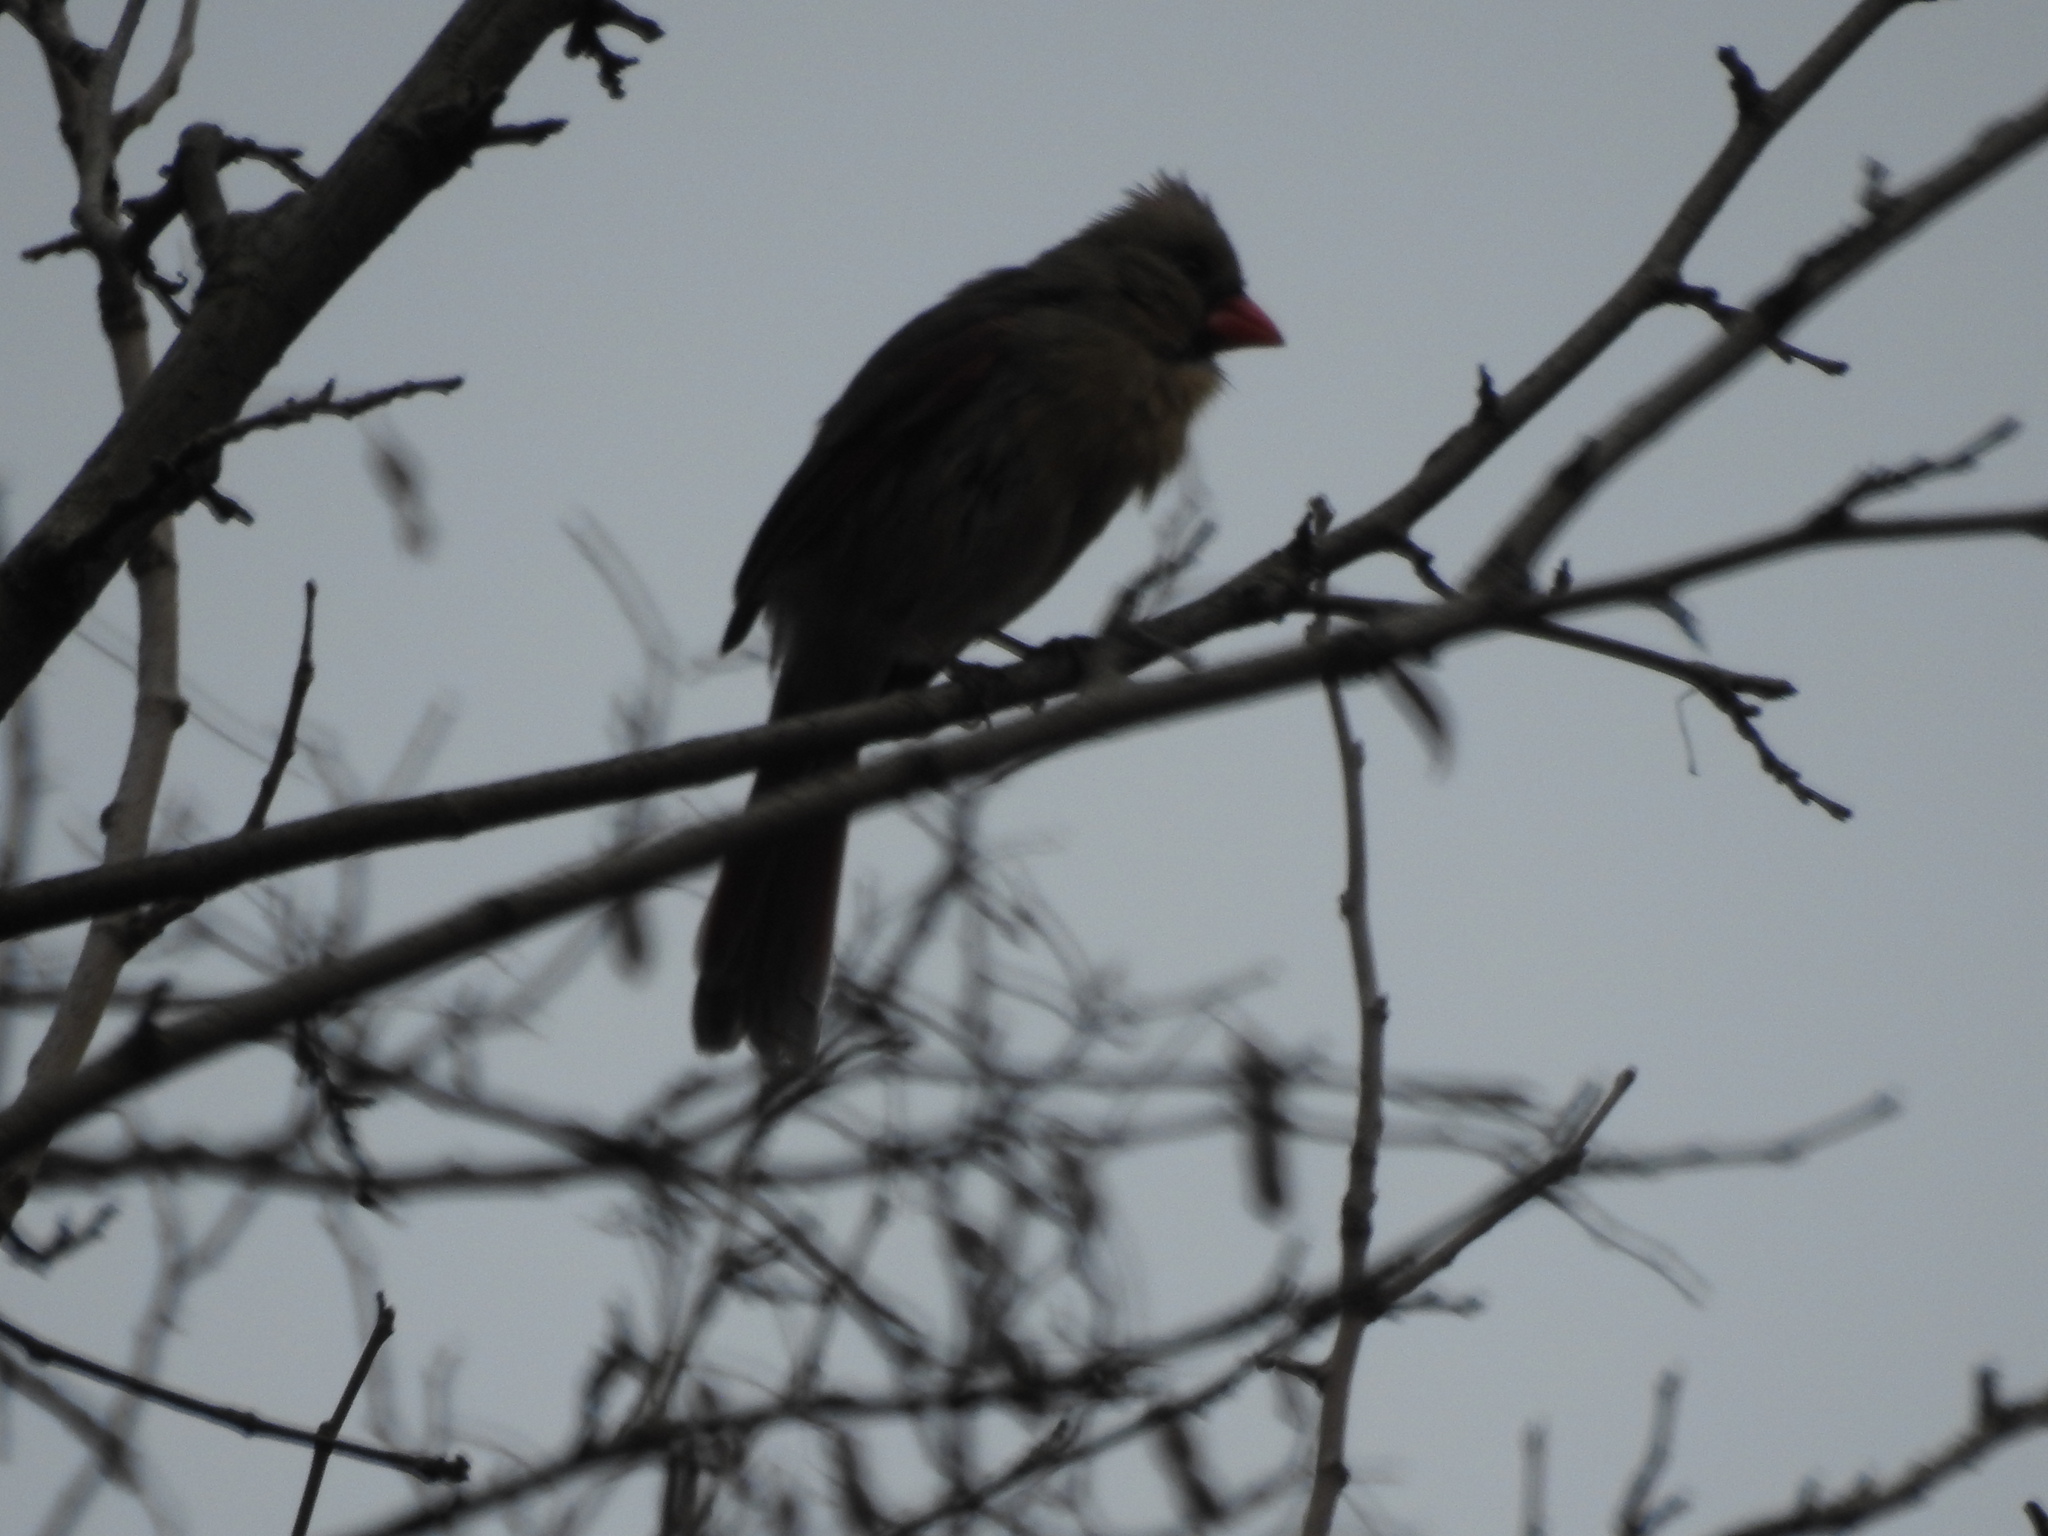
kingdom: Animalia
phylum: Chordata
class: Aves
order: Passeriformes
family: Cardinalidae
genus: Cardinalis
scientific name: Cardinalis cardinalis
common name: Northern cardinal
